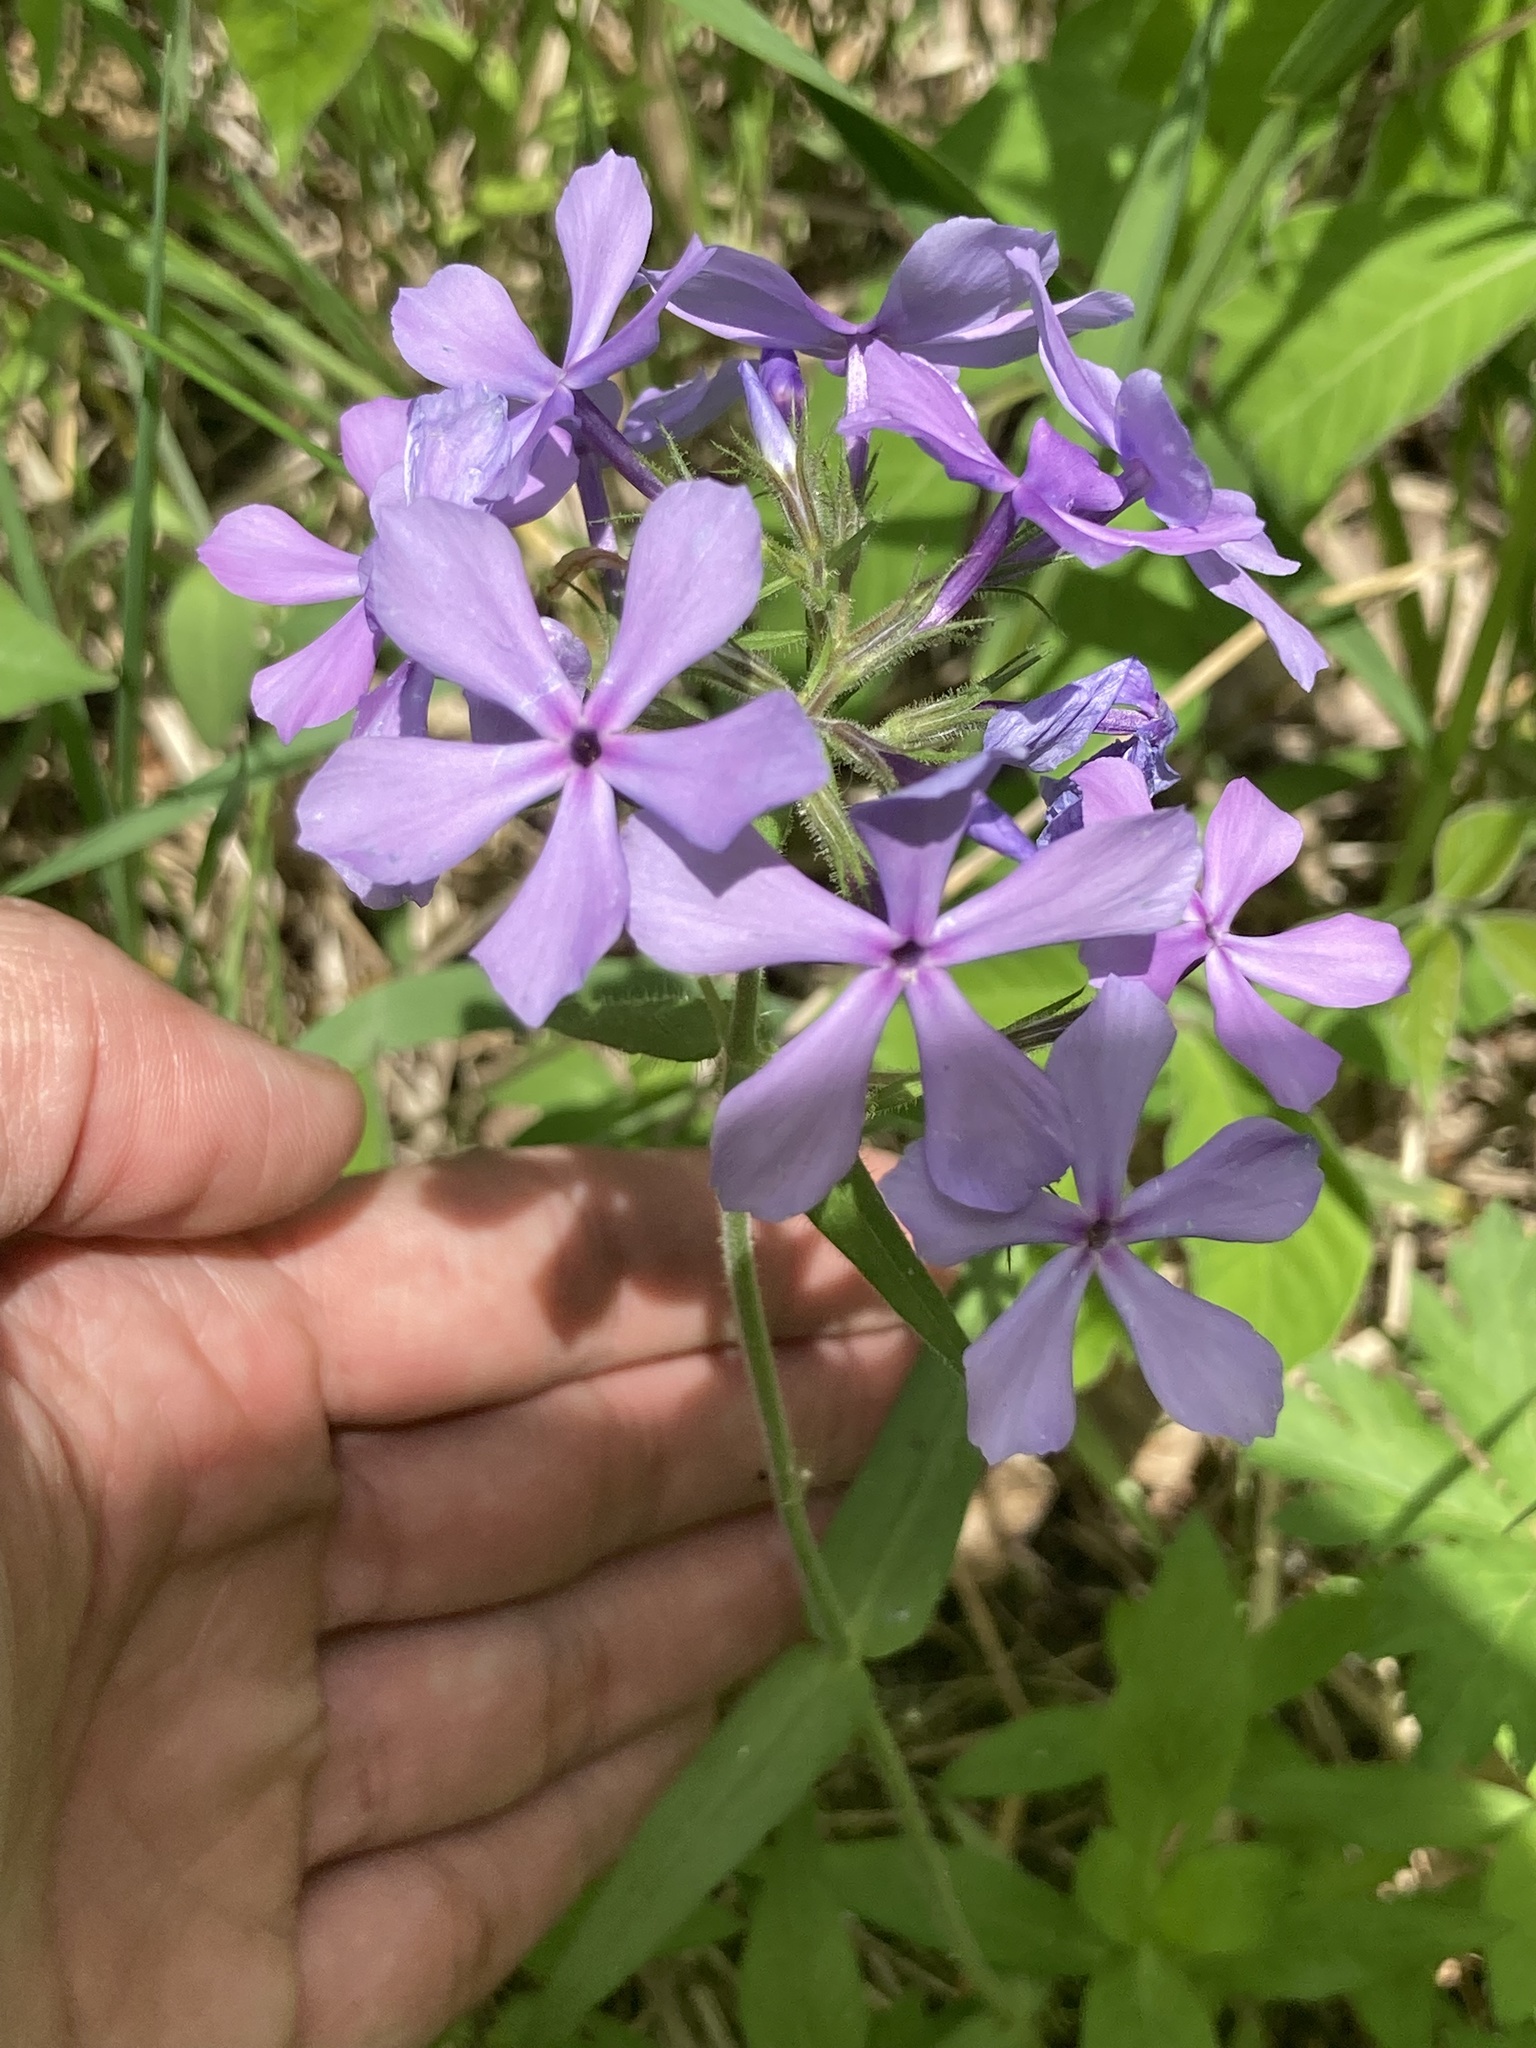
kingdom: Plantae
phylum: Tracheophyta
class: Magnoliopsida
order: Ericales
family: Polemoniaceae
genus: Phlox
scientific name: Phlox divaricata
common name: Blue phlox
